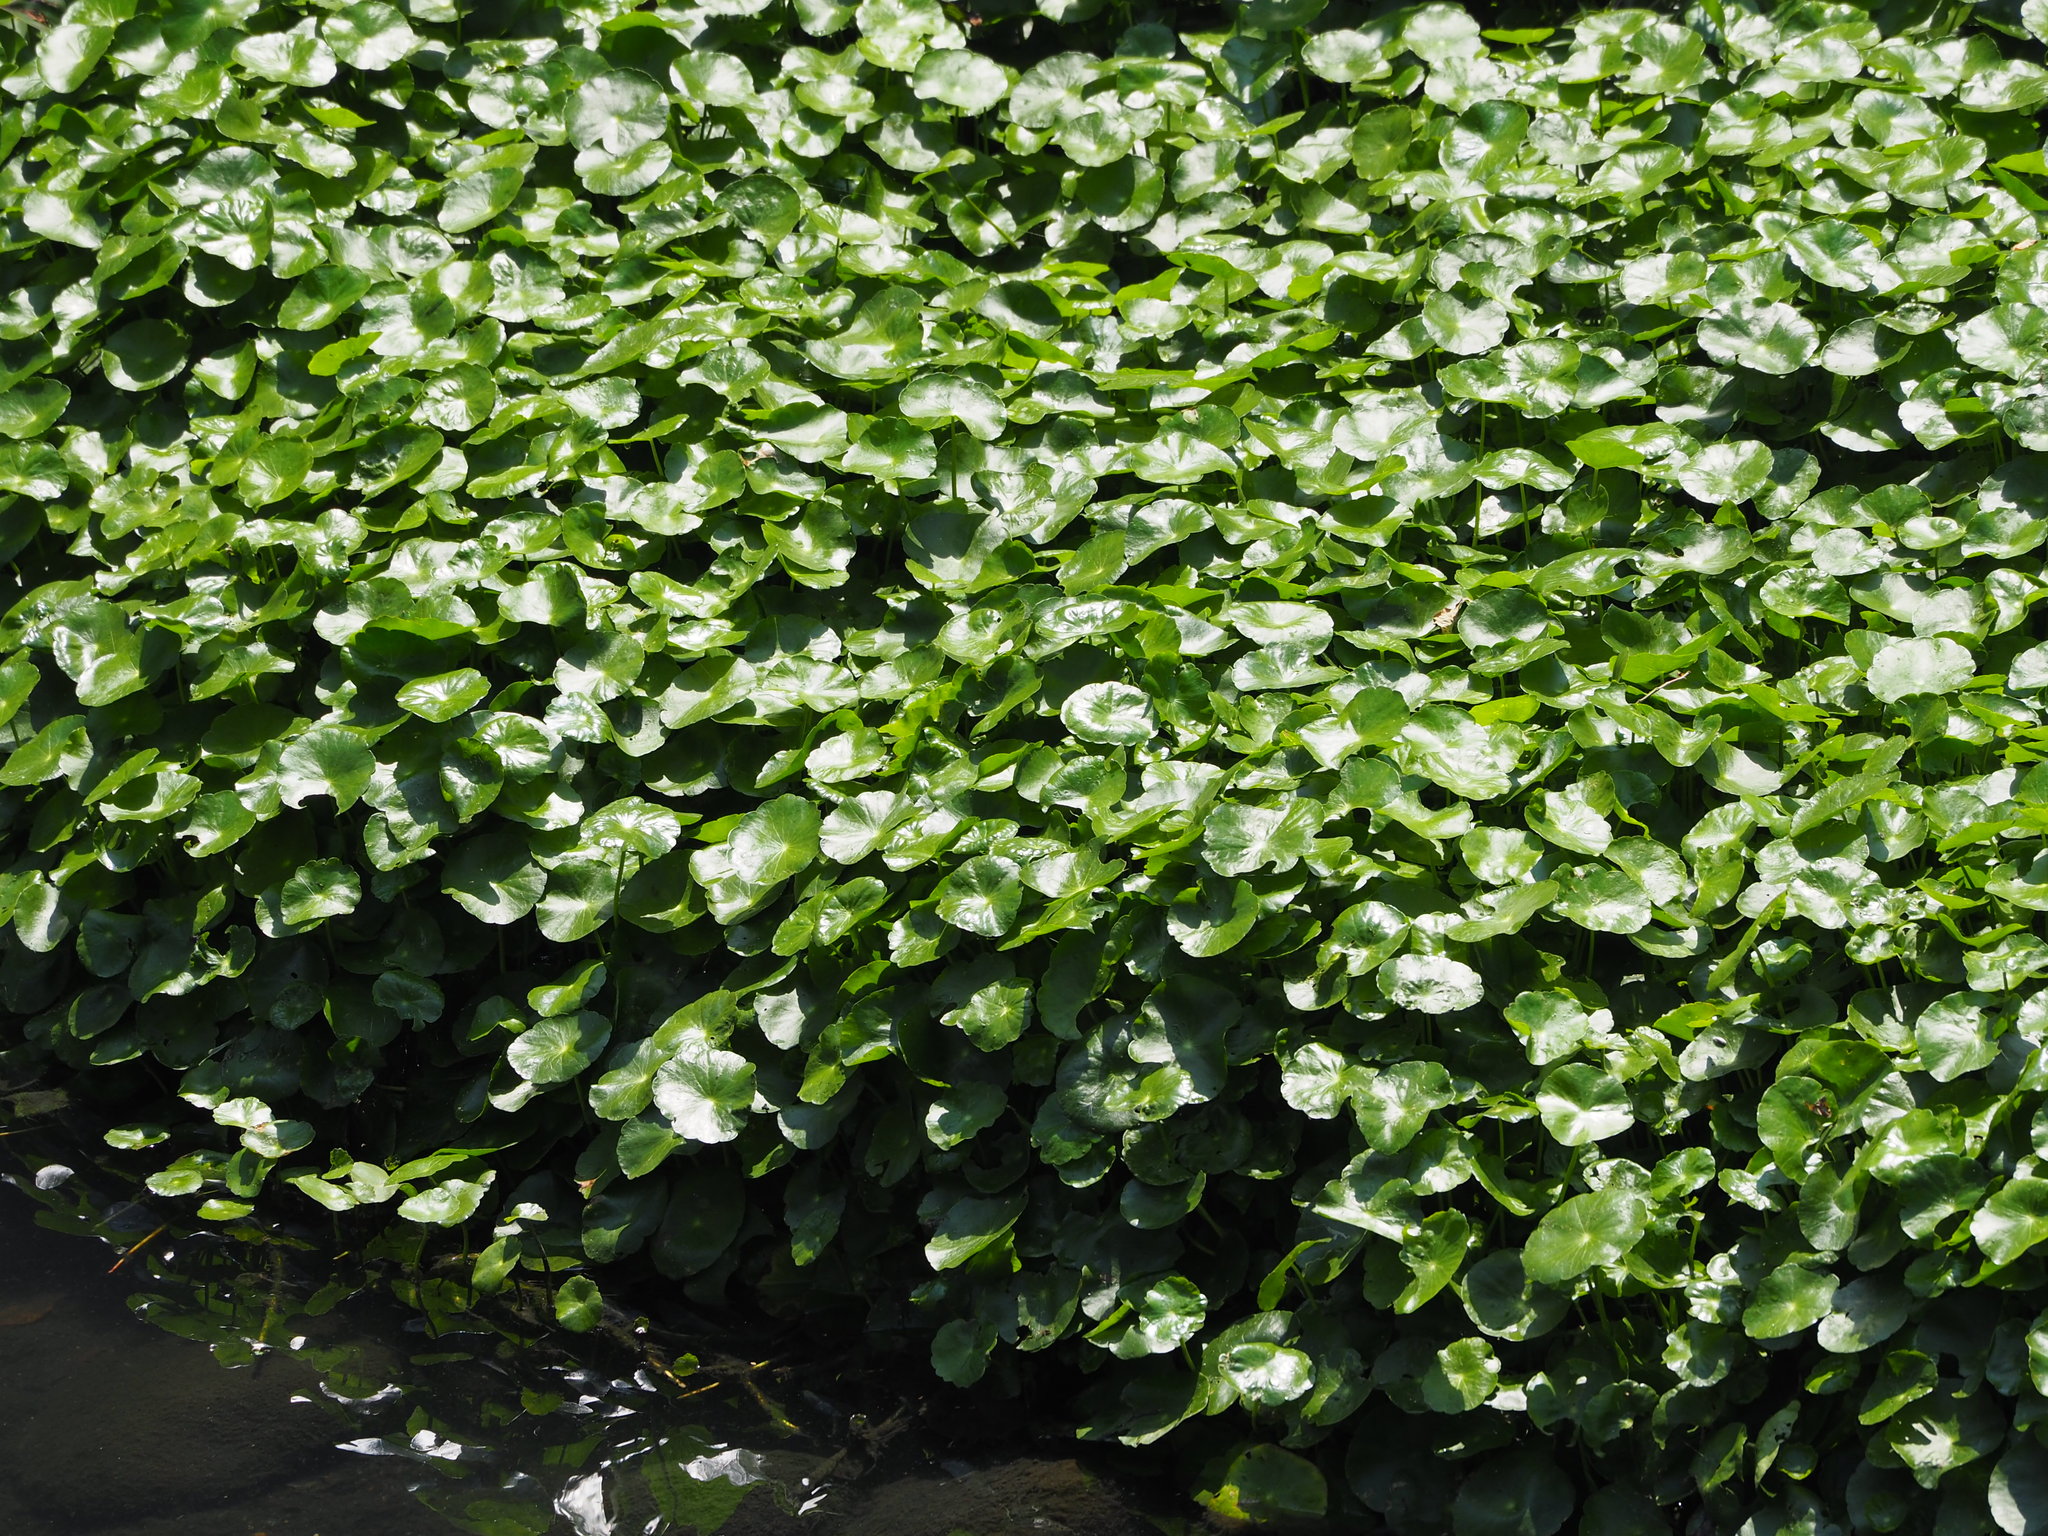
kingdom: Plantae
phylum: Tracheophyta
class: Magnoliopsida
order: Apiales
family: Araliaceae
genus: Hydrocotyle
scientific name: Hydrocotyle verticillata
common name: Whorled marshpennywort
